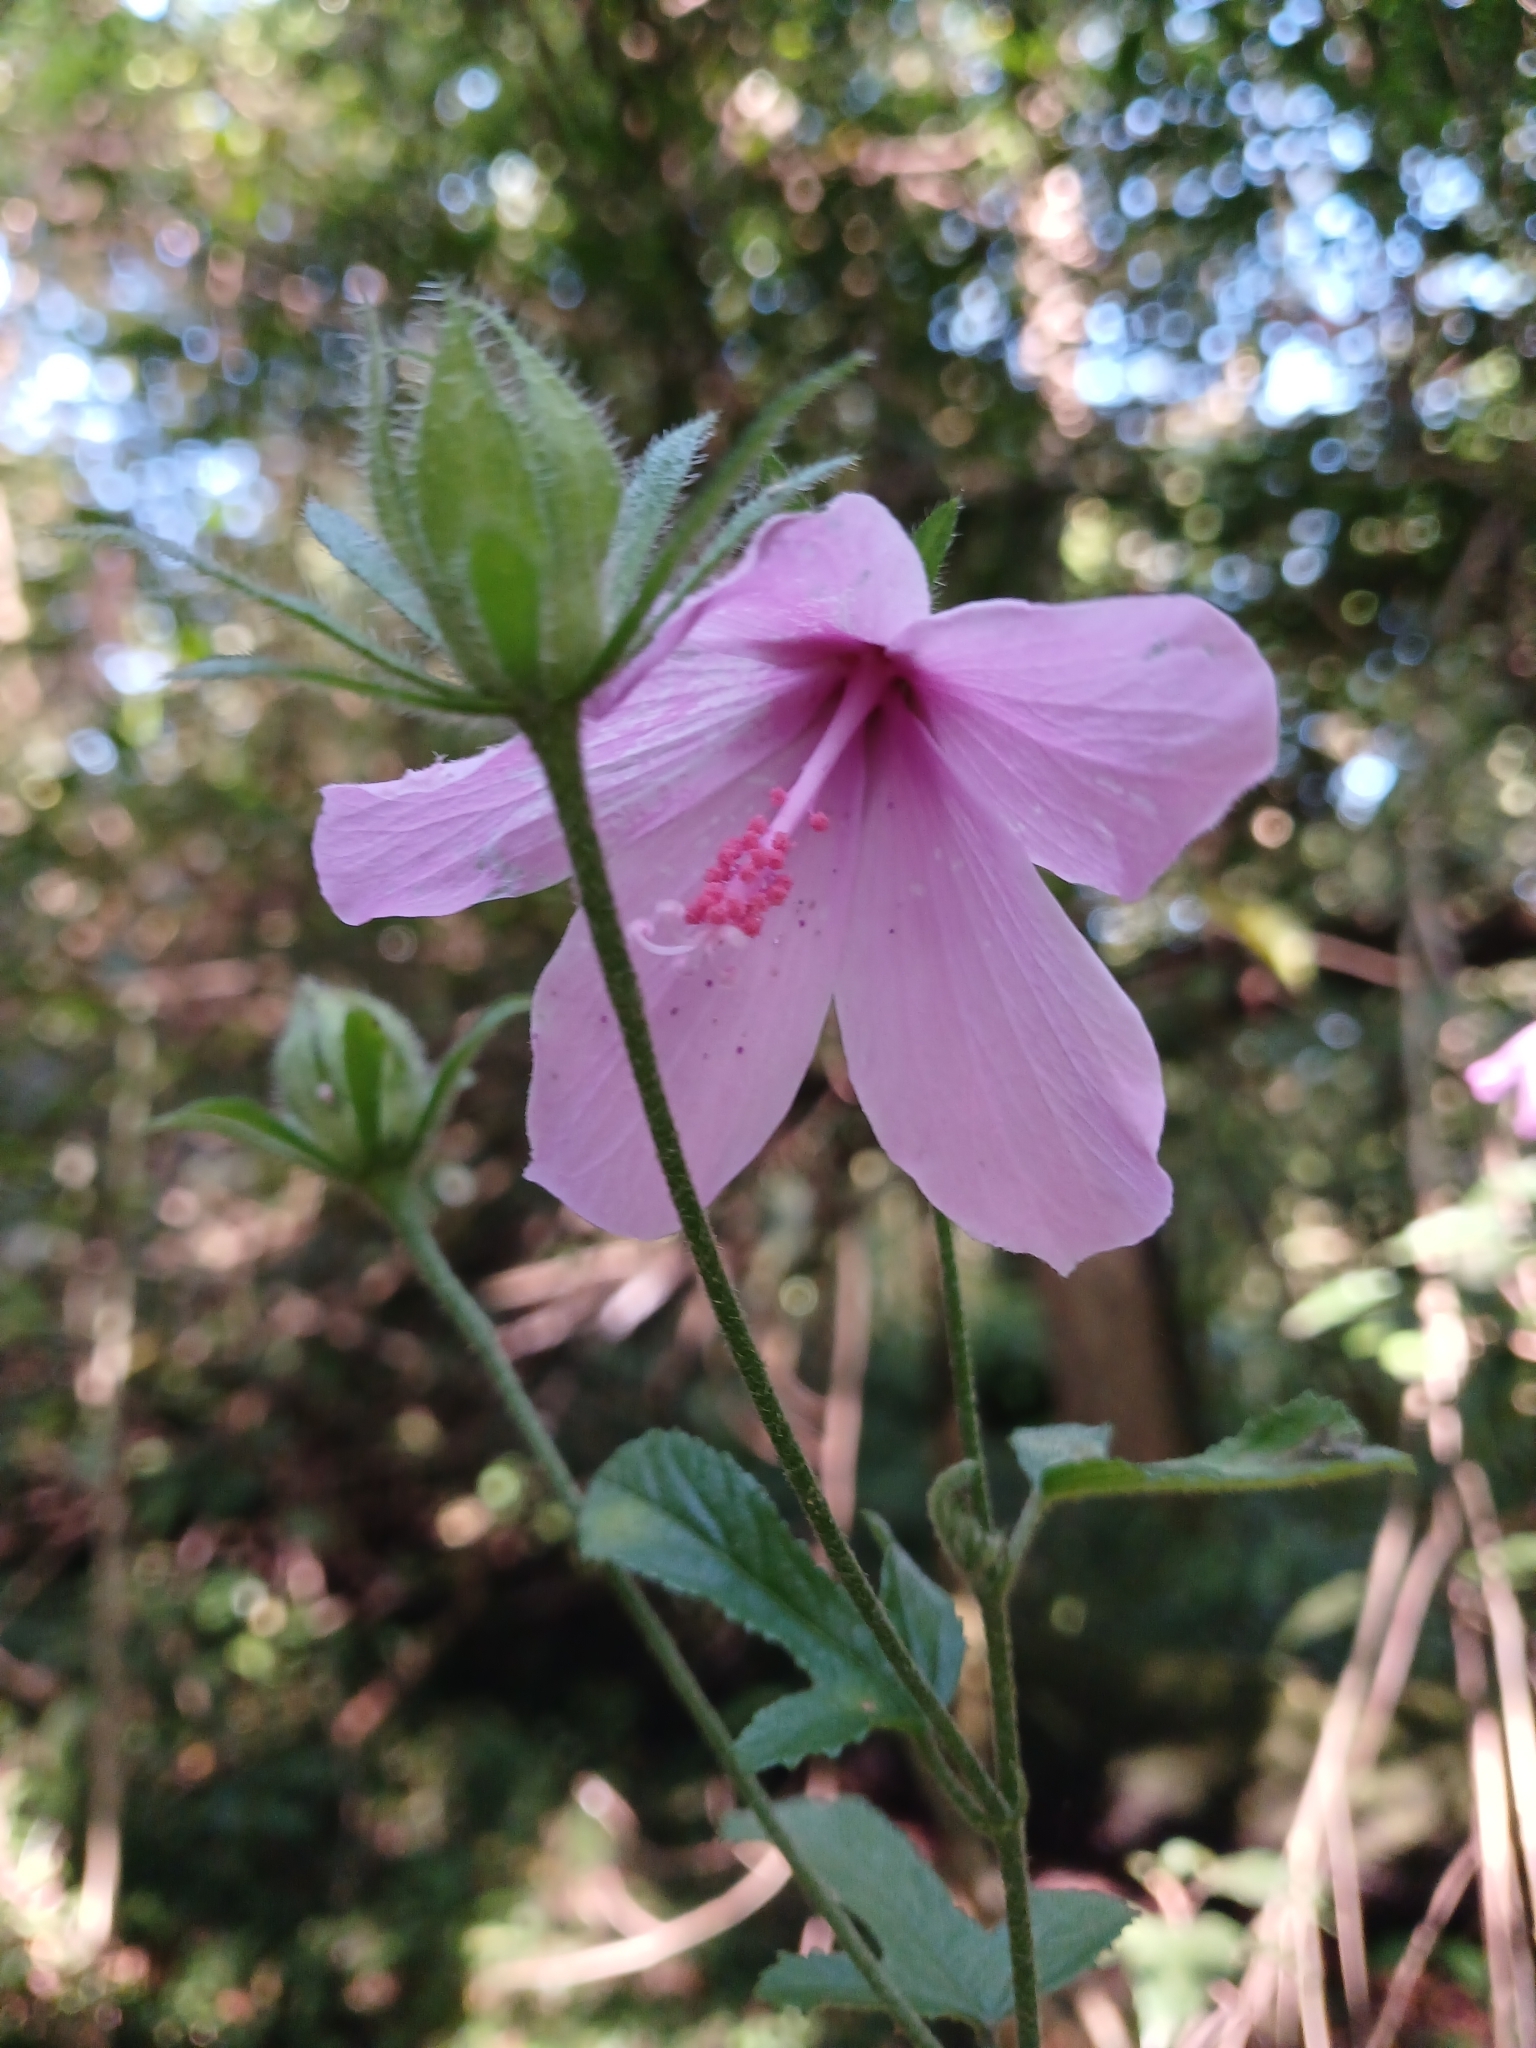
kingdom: Plantae
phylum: Tracheophyta
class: Magnoliopsida
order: Malvales
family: Malvaceae
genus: Hibiscus
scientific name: Hibiscus pedunculatus
